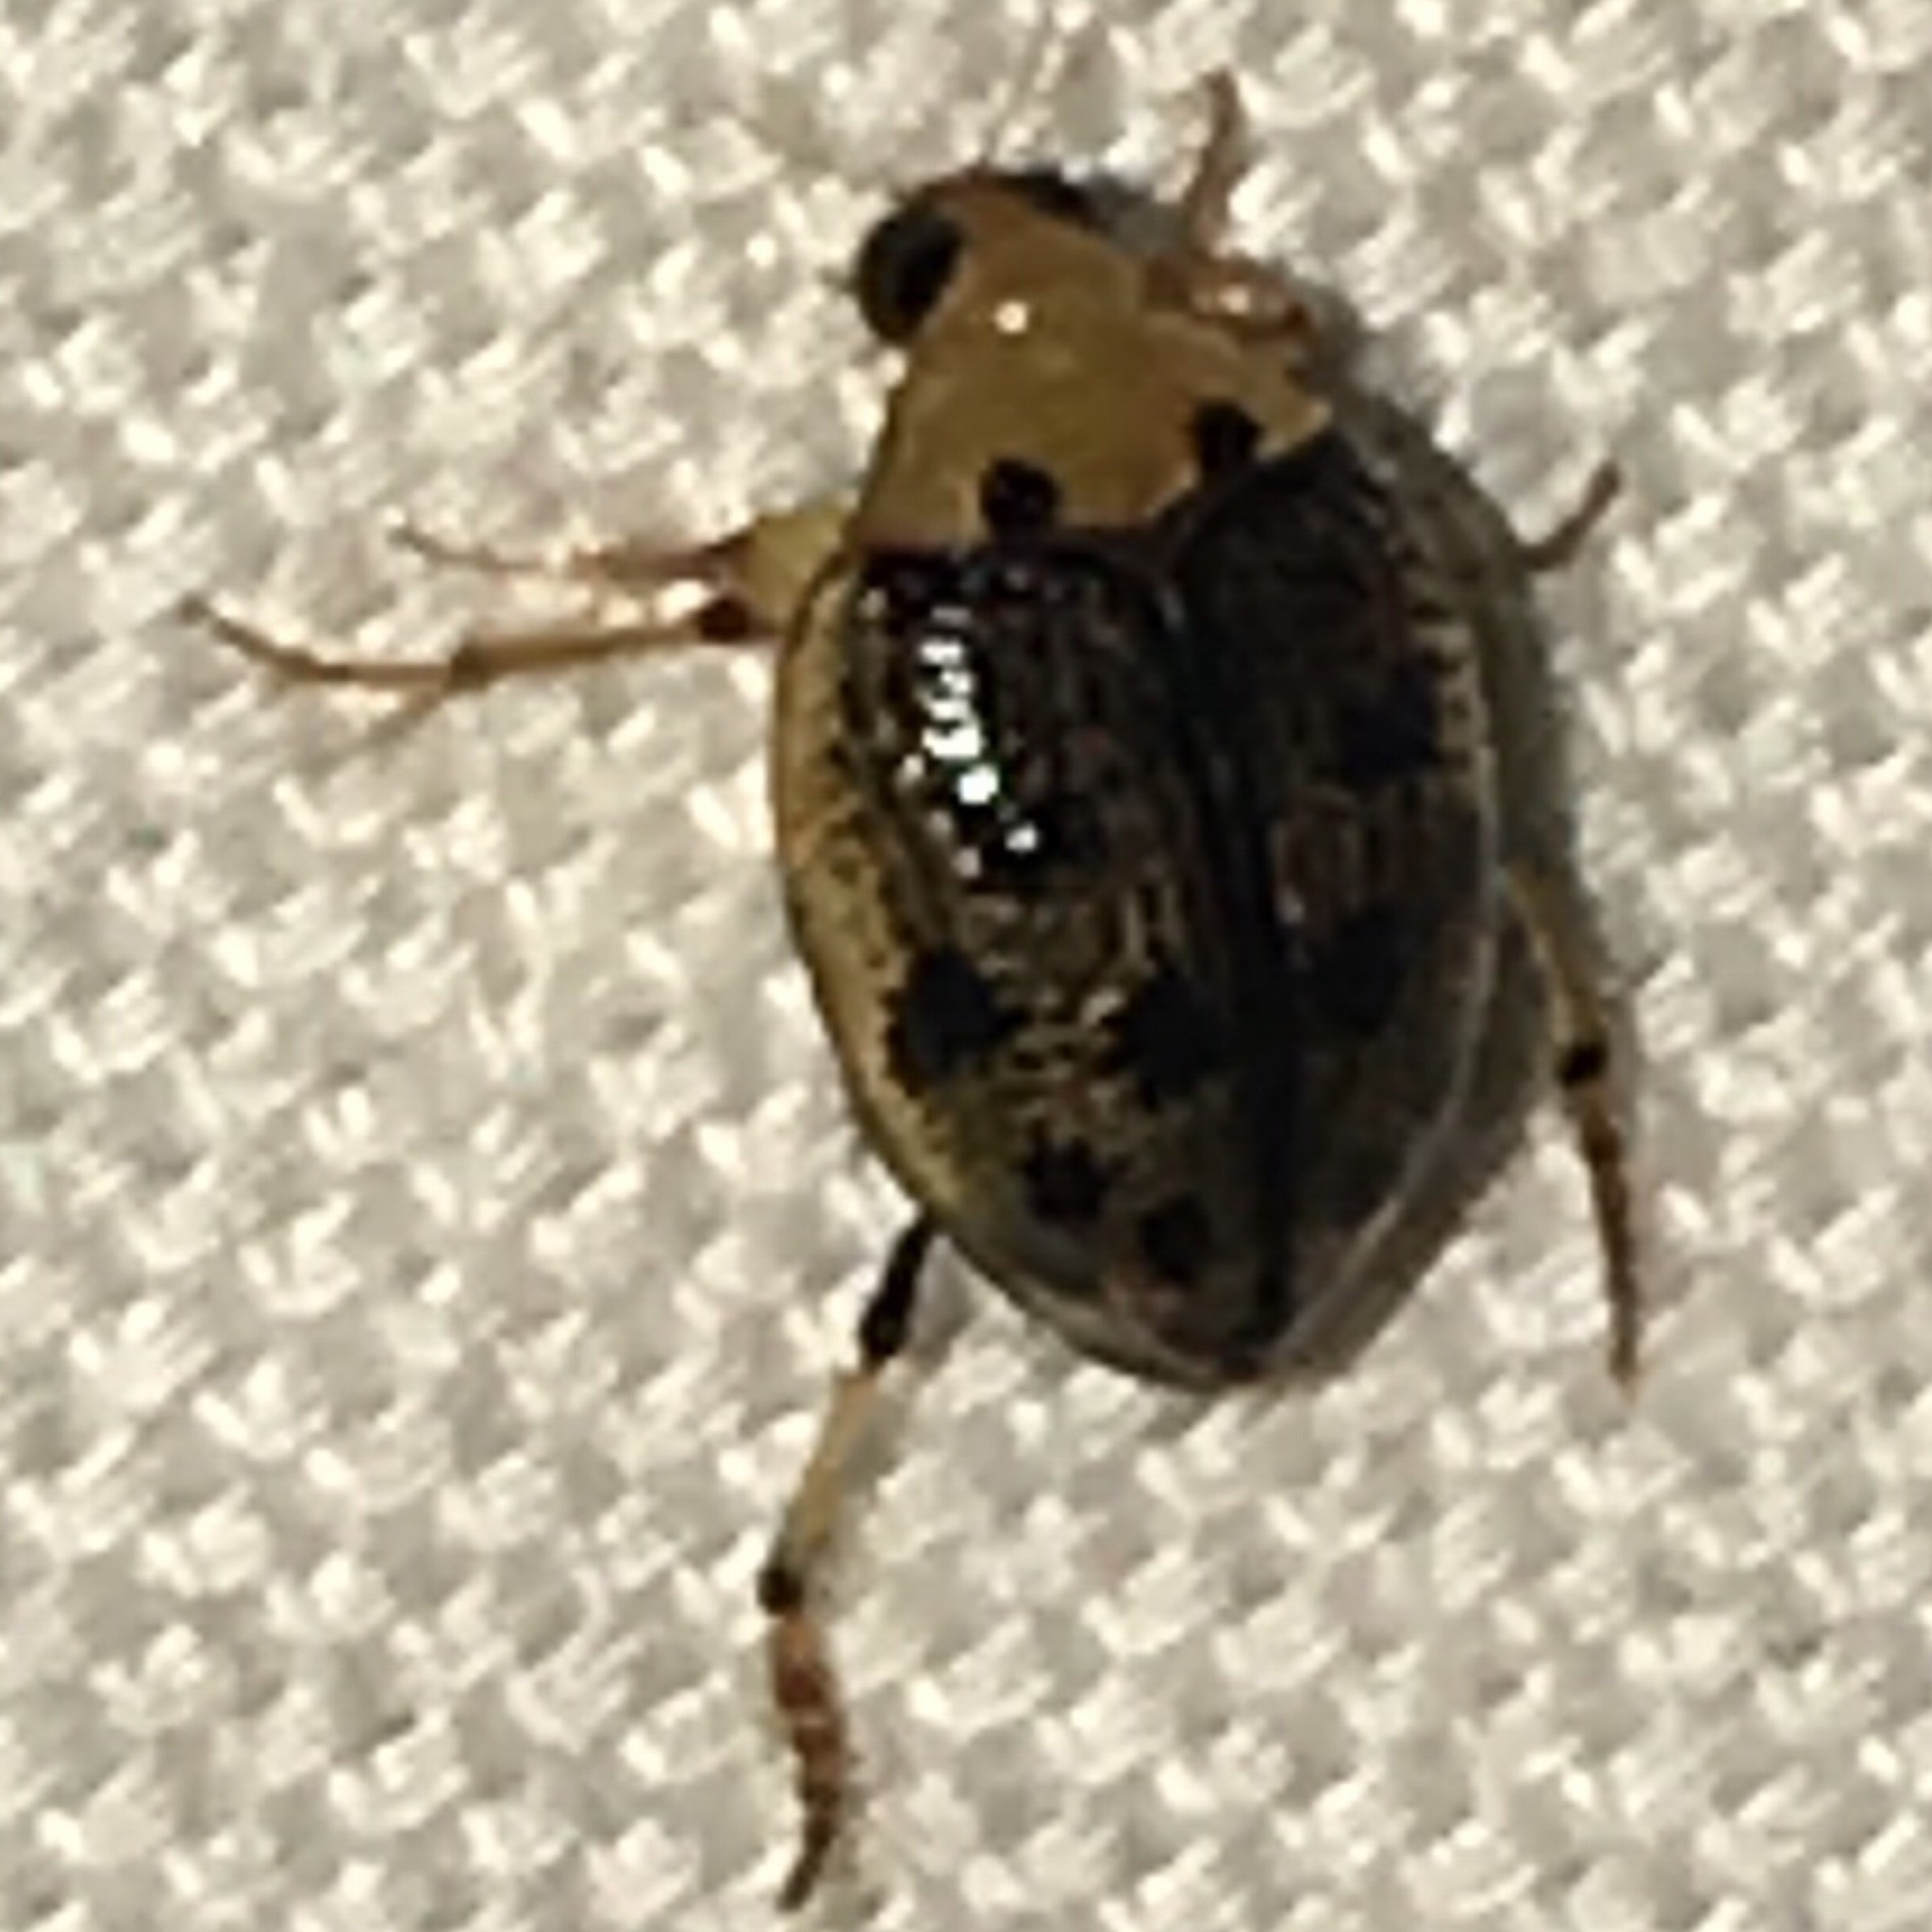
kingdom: Animalia
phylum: Arthropoda
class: Insecta
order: Coleoptera
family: Haliplidae
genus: Peltodytes
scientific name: Peltodytes sexmaculatus
